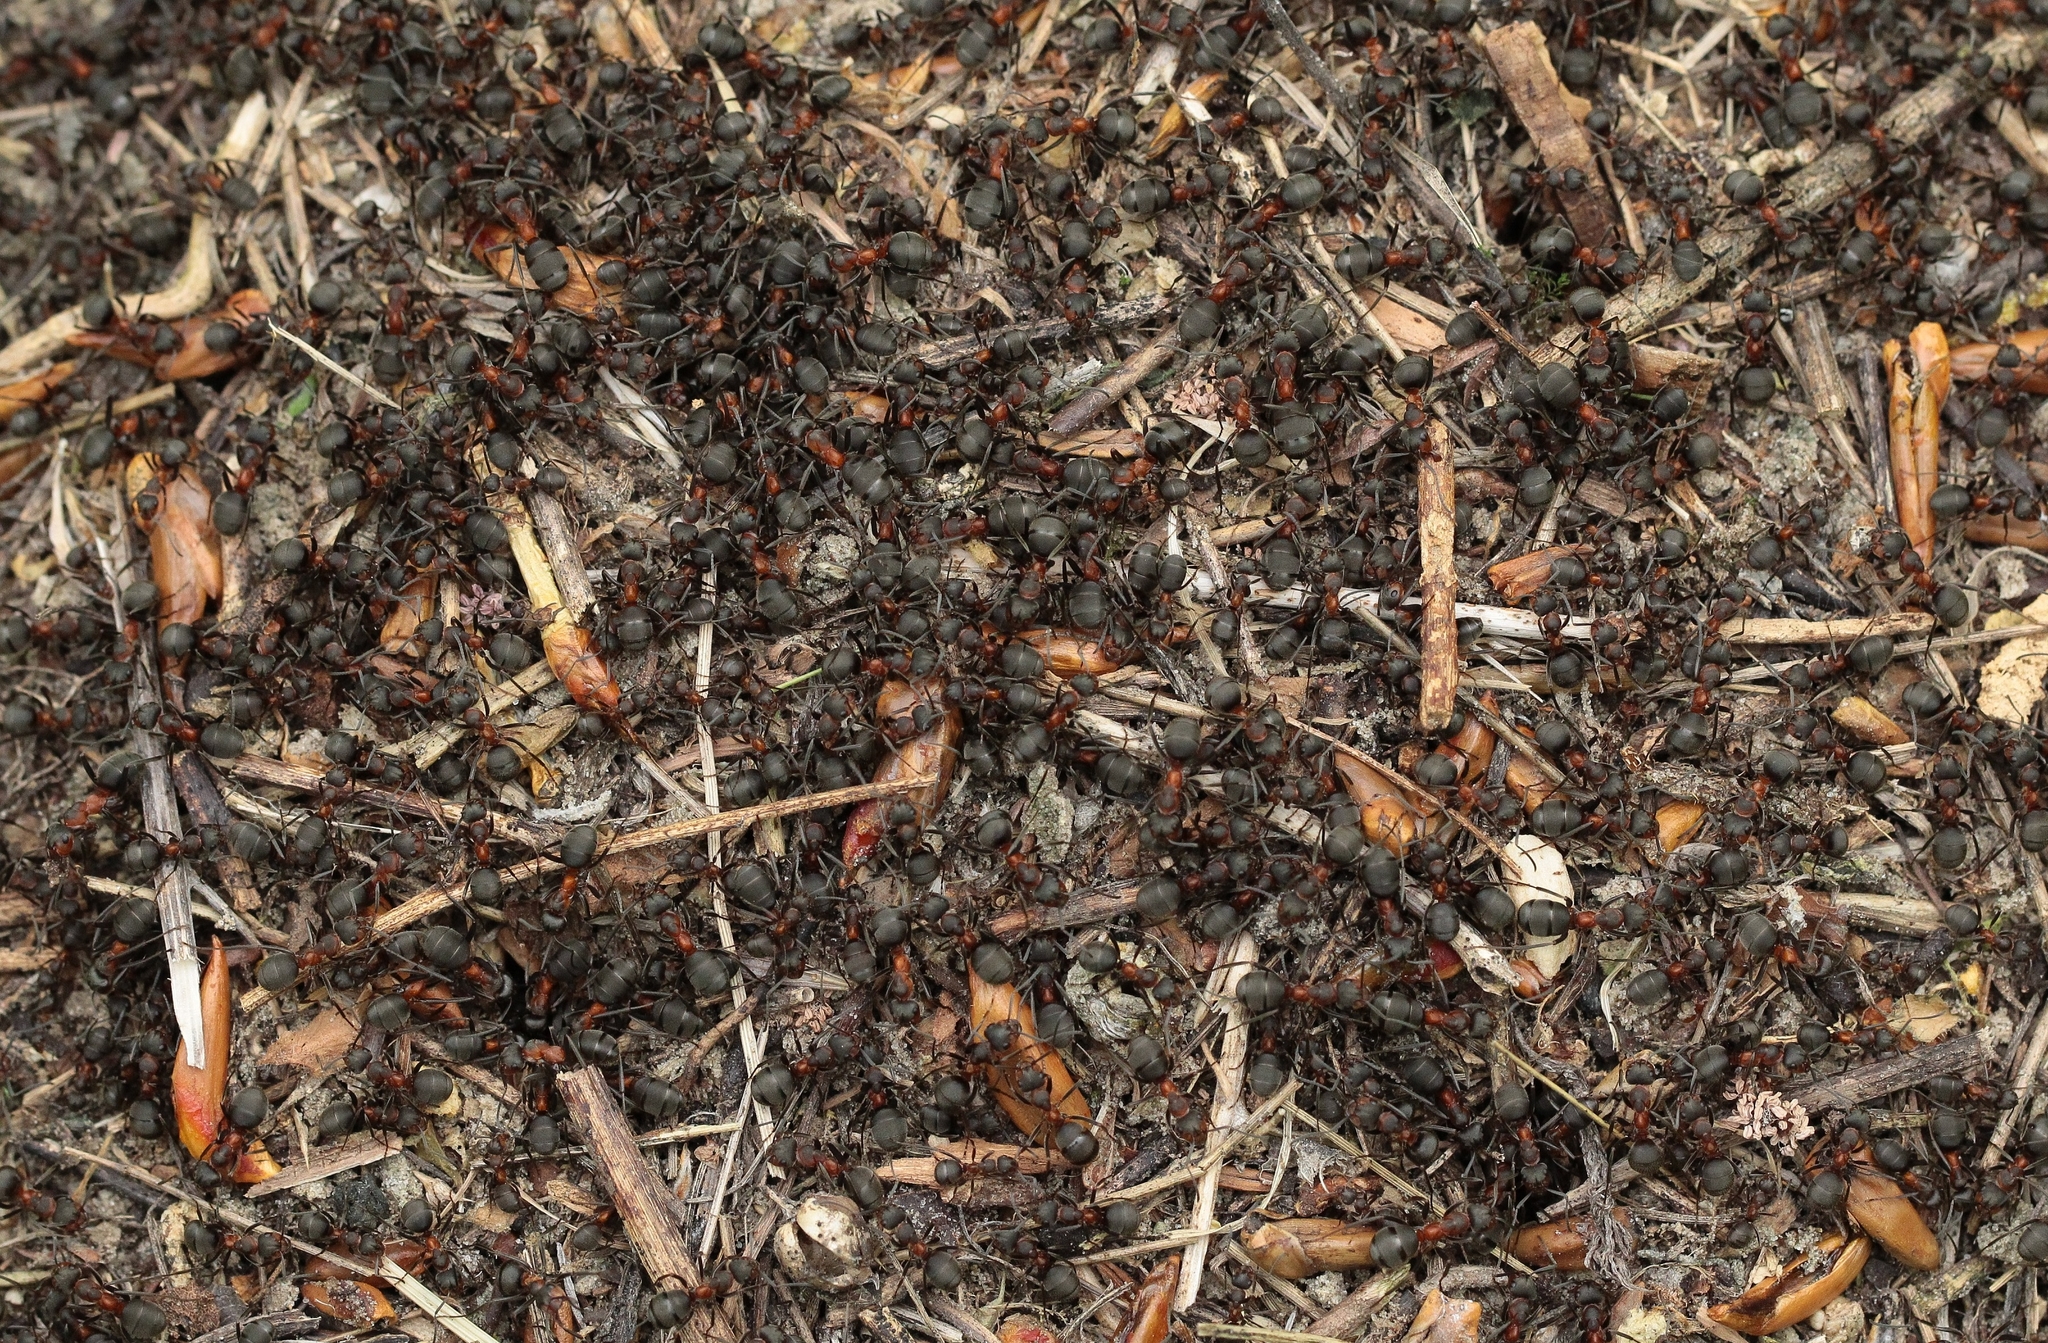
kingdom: Animalia
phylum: Arthropoda
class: Insecta
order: Hymenoptera
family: Formicidae
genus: Formica
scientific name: Formica pratensis
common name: European red wood ant
